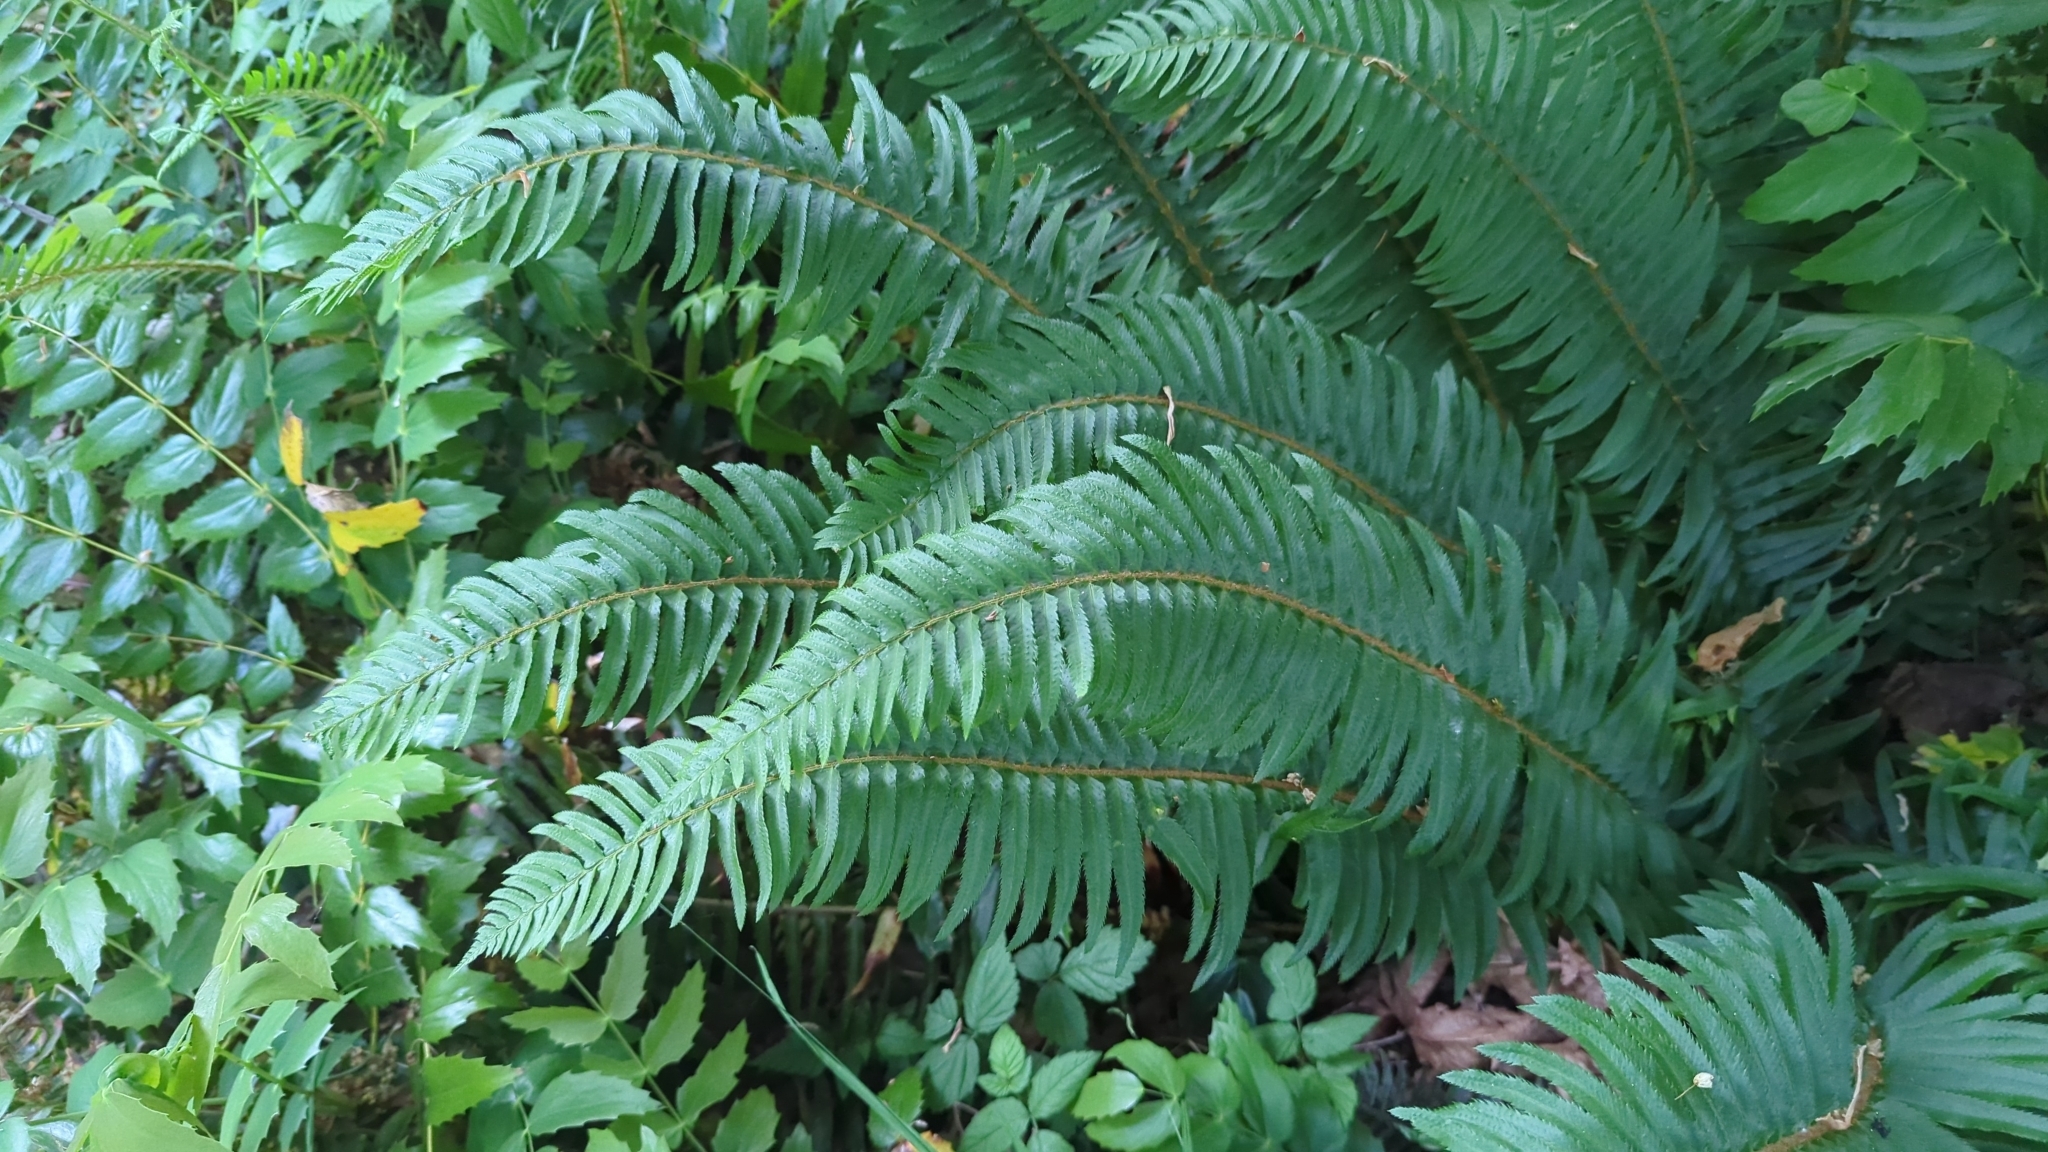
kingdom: Plantae
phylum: Tracheophyta
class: Polypodiopsida
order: Polypodiales
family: Dryopteridaceae
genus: Polystichum
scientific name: Polystichum munitum
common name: Western sword-fern
